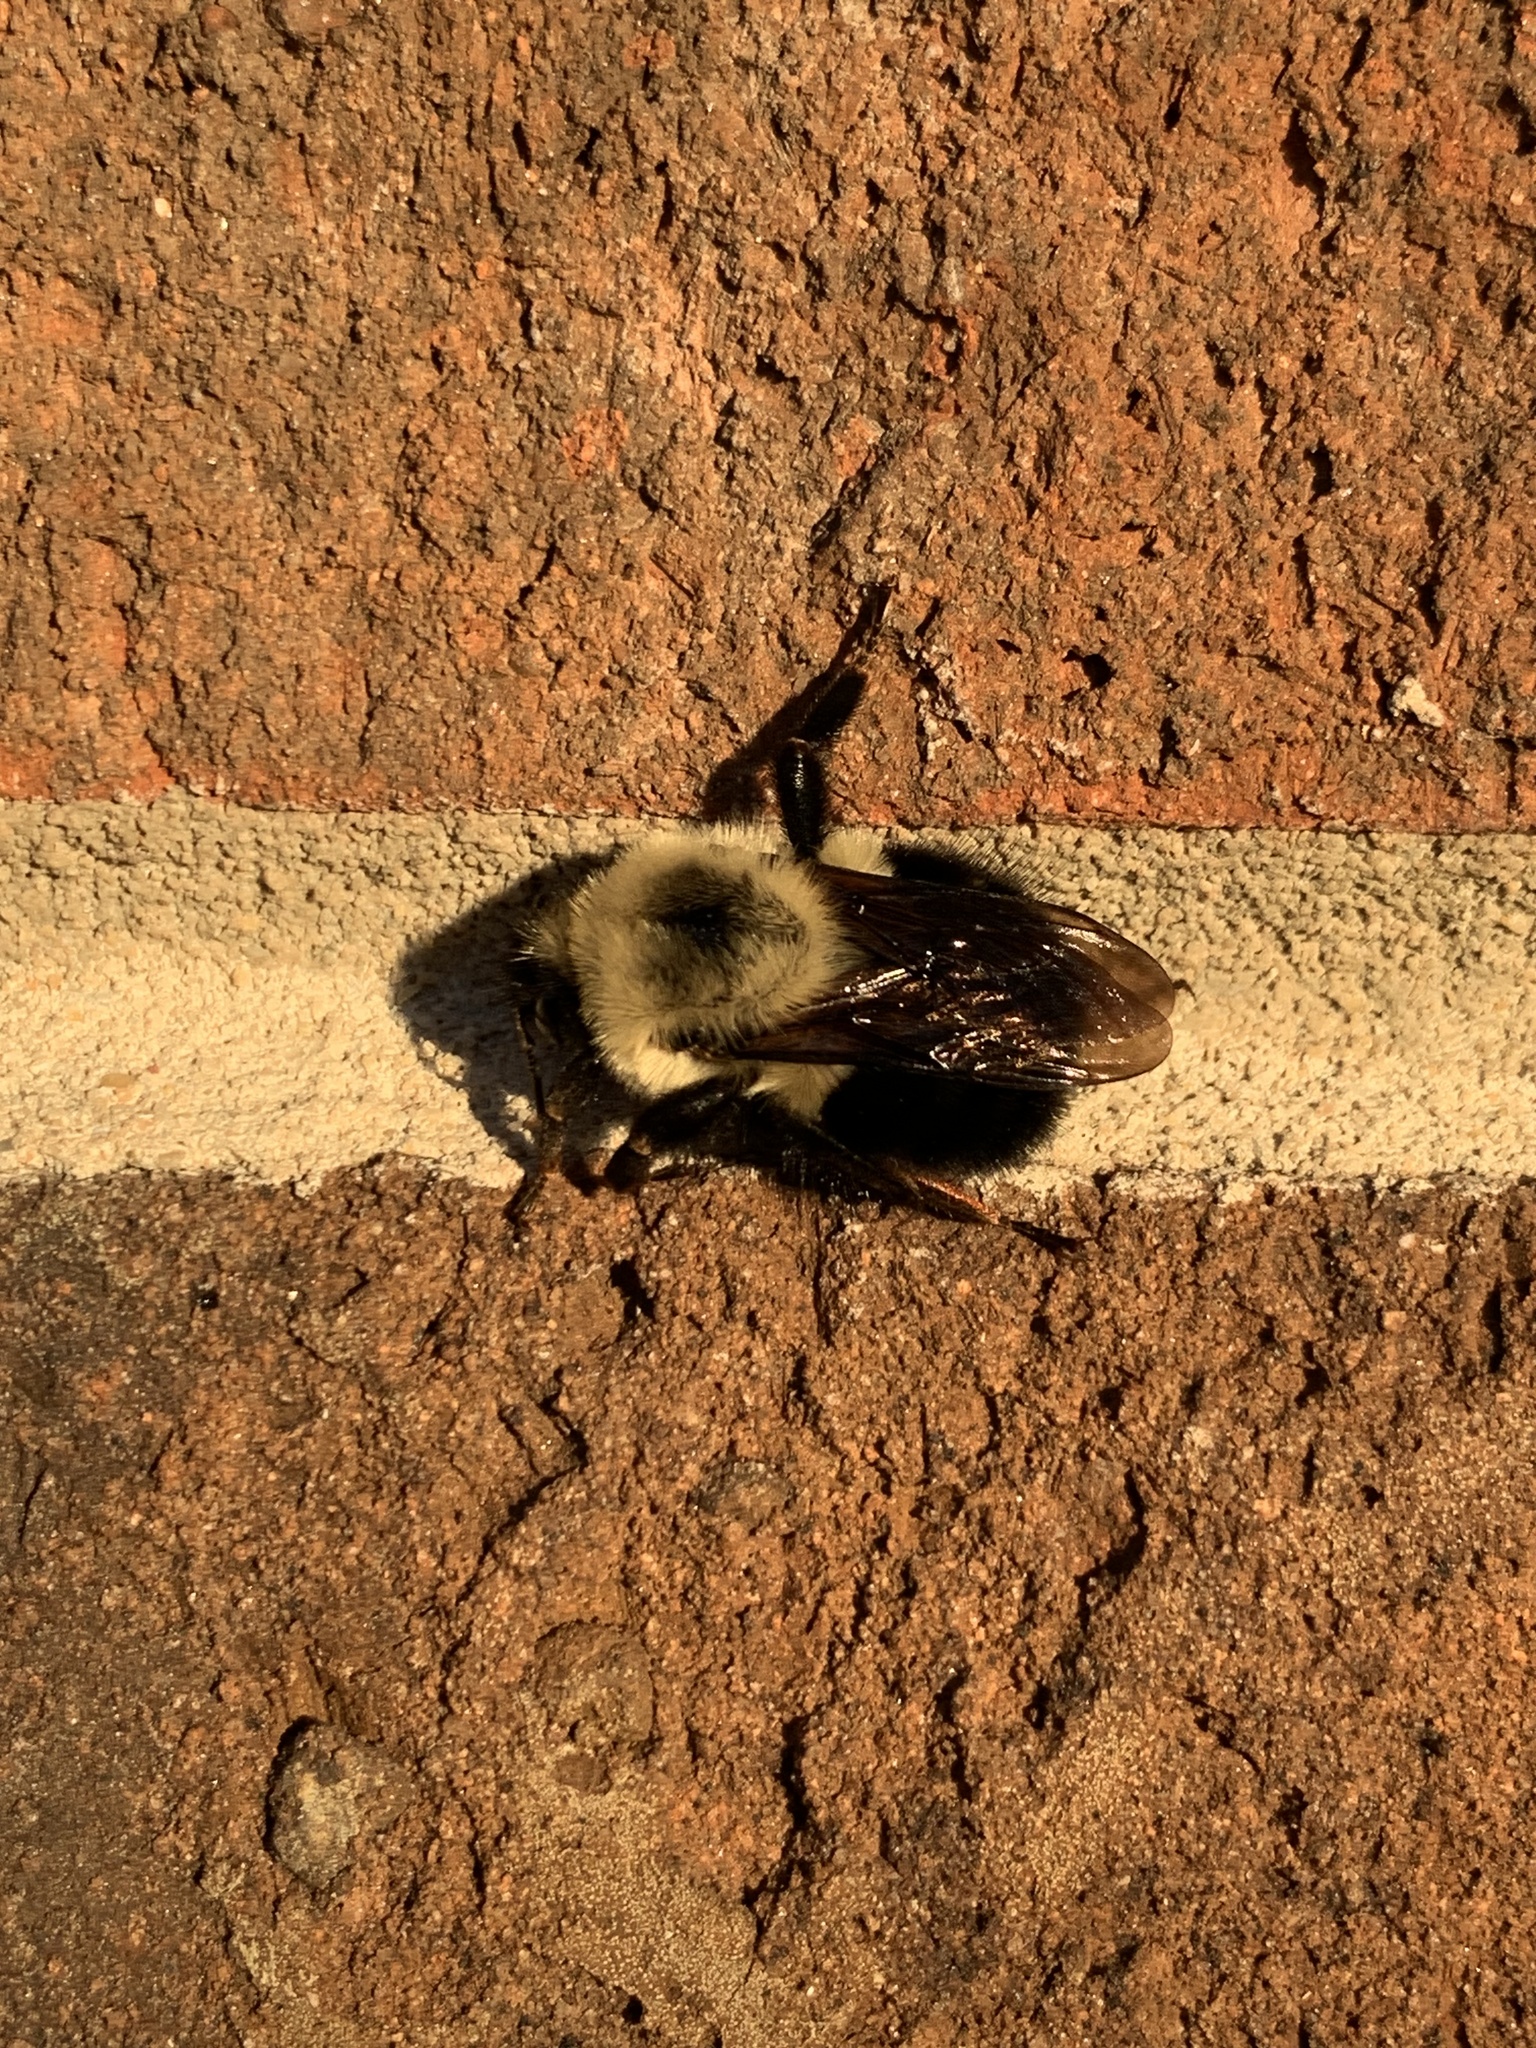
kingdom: Animalia
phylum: Arthropoda
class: Insecta
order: Hymenoptera
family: Apidae
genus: Bombus
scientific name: Bombus bimaculatus
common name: Two-spotted bumble bee
